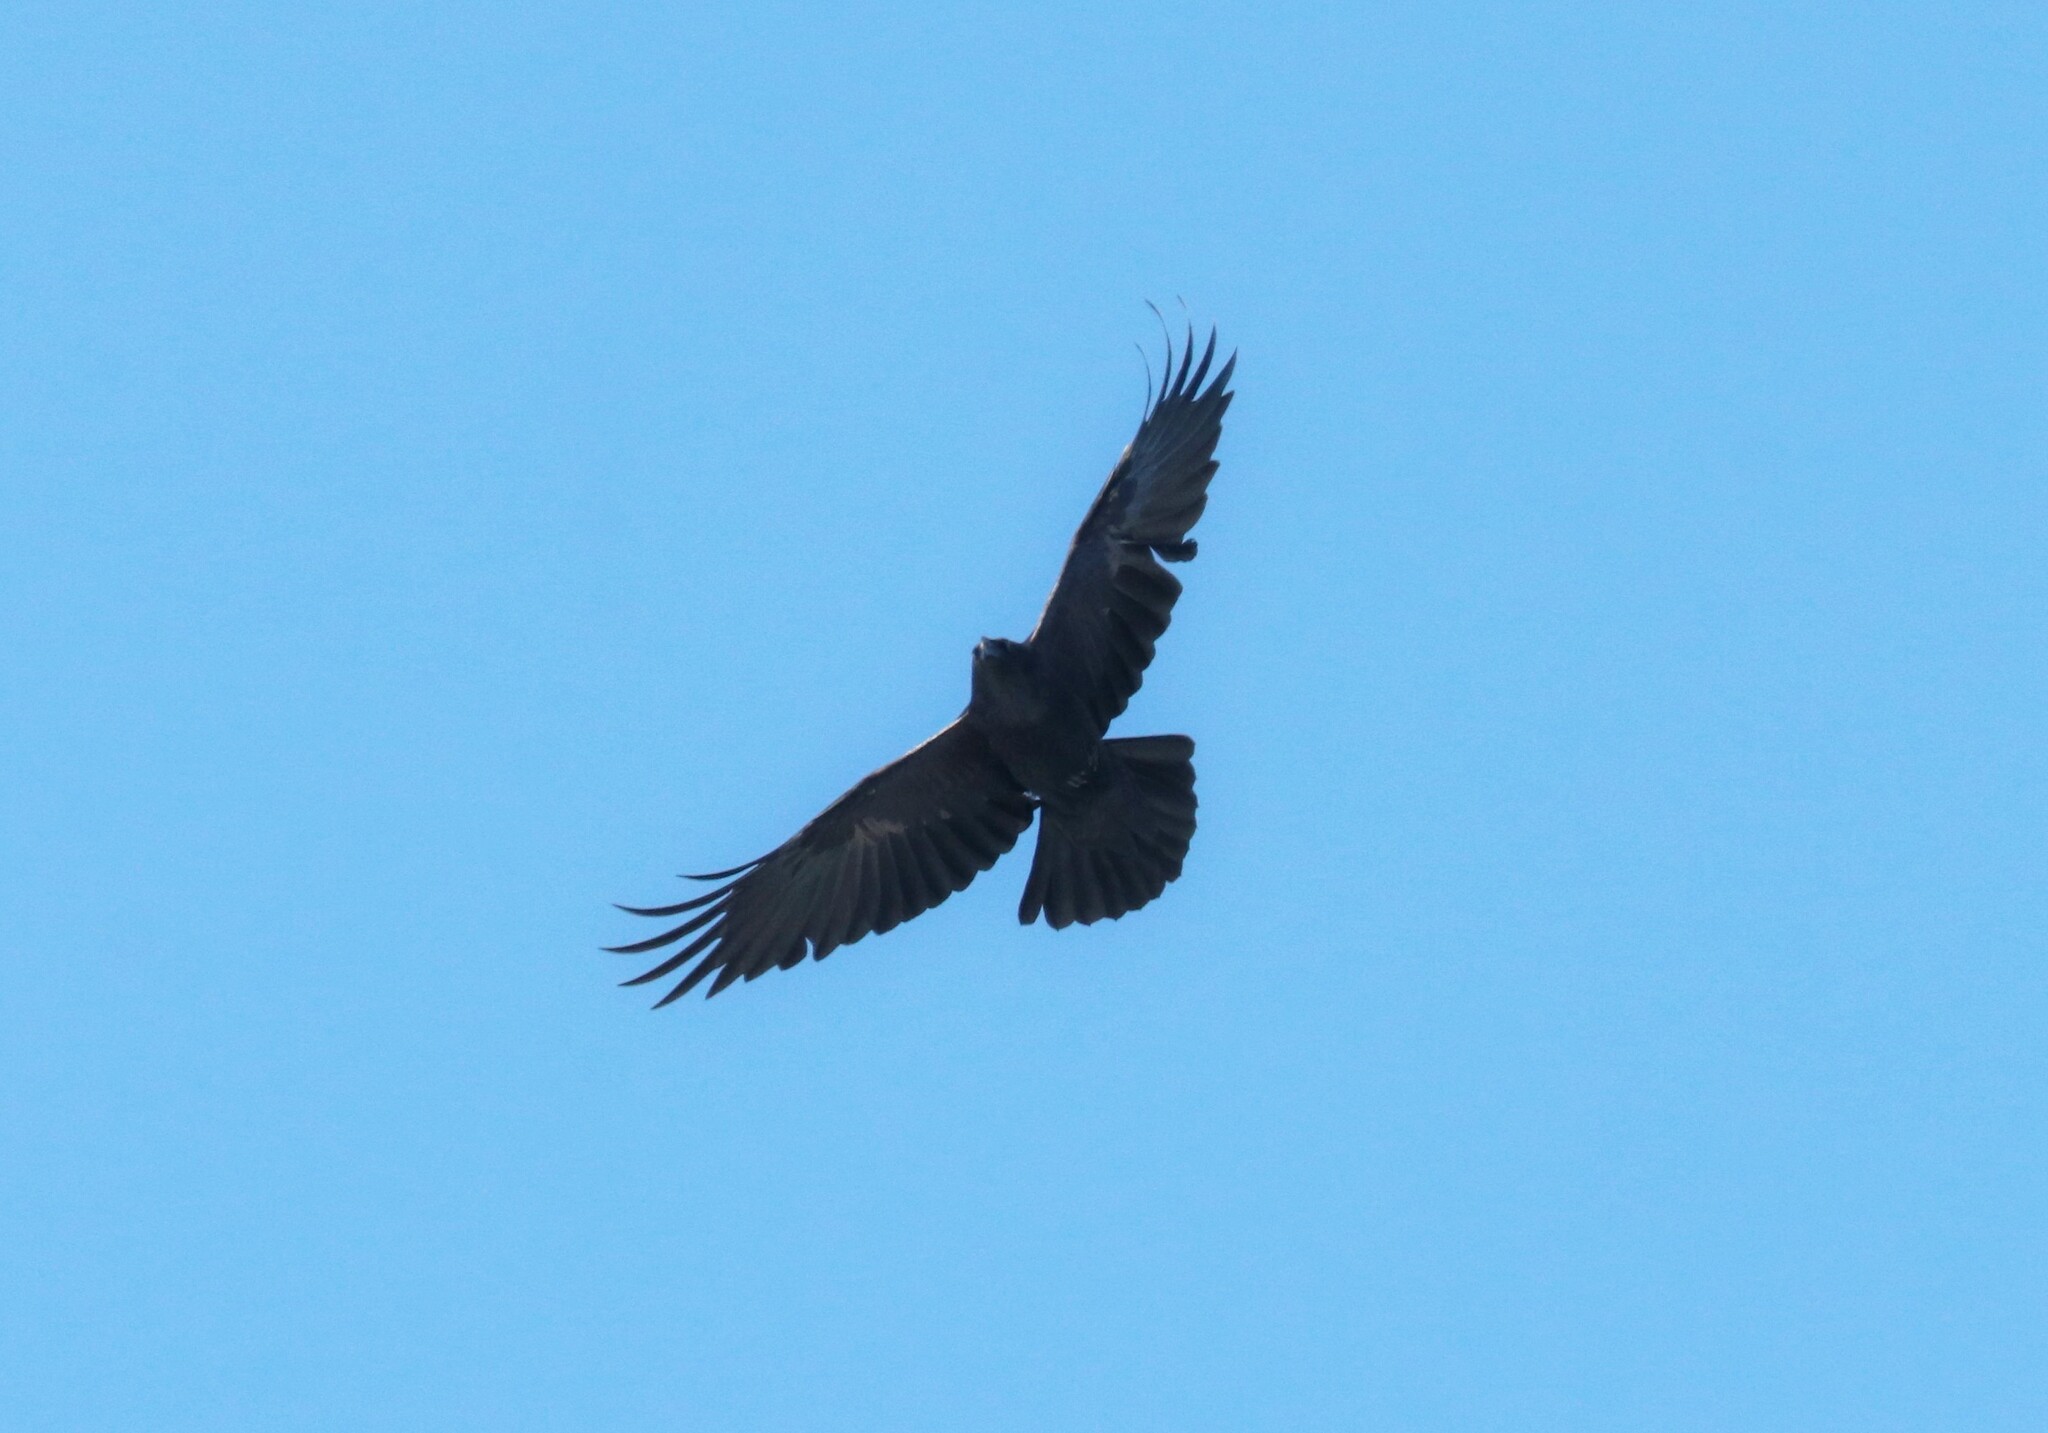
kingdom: Animalia
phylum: Chordata
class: Aves
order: Passeriformes
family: Corvidae
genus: Corvus
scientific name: Corvus corax
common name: Common raven
